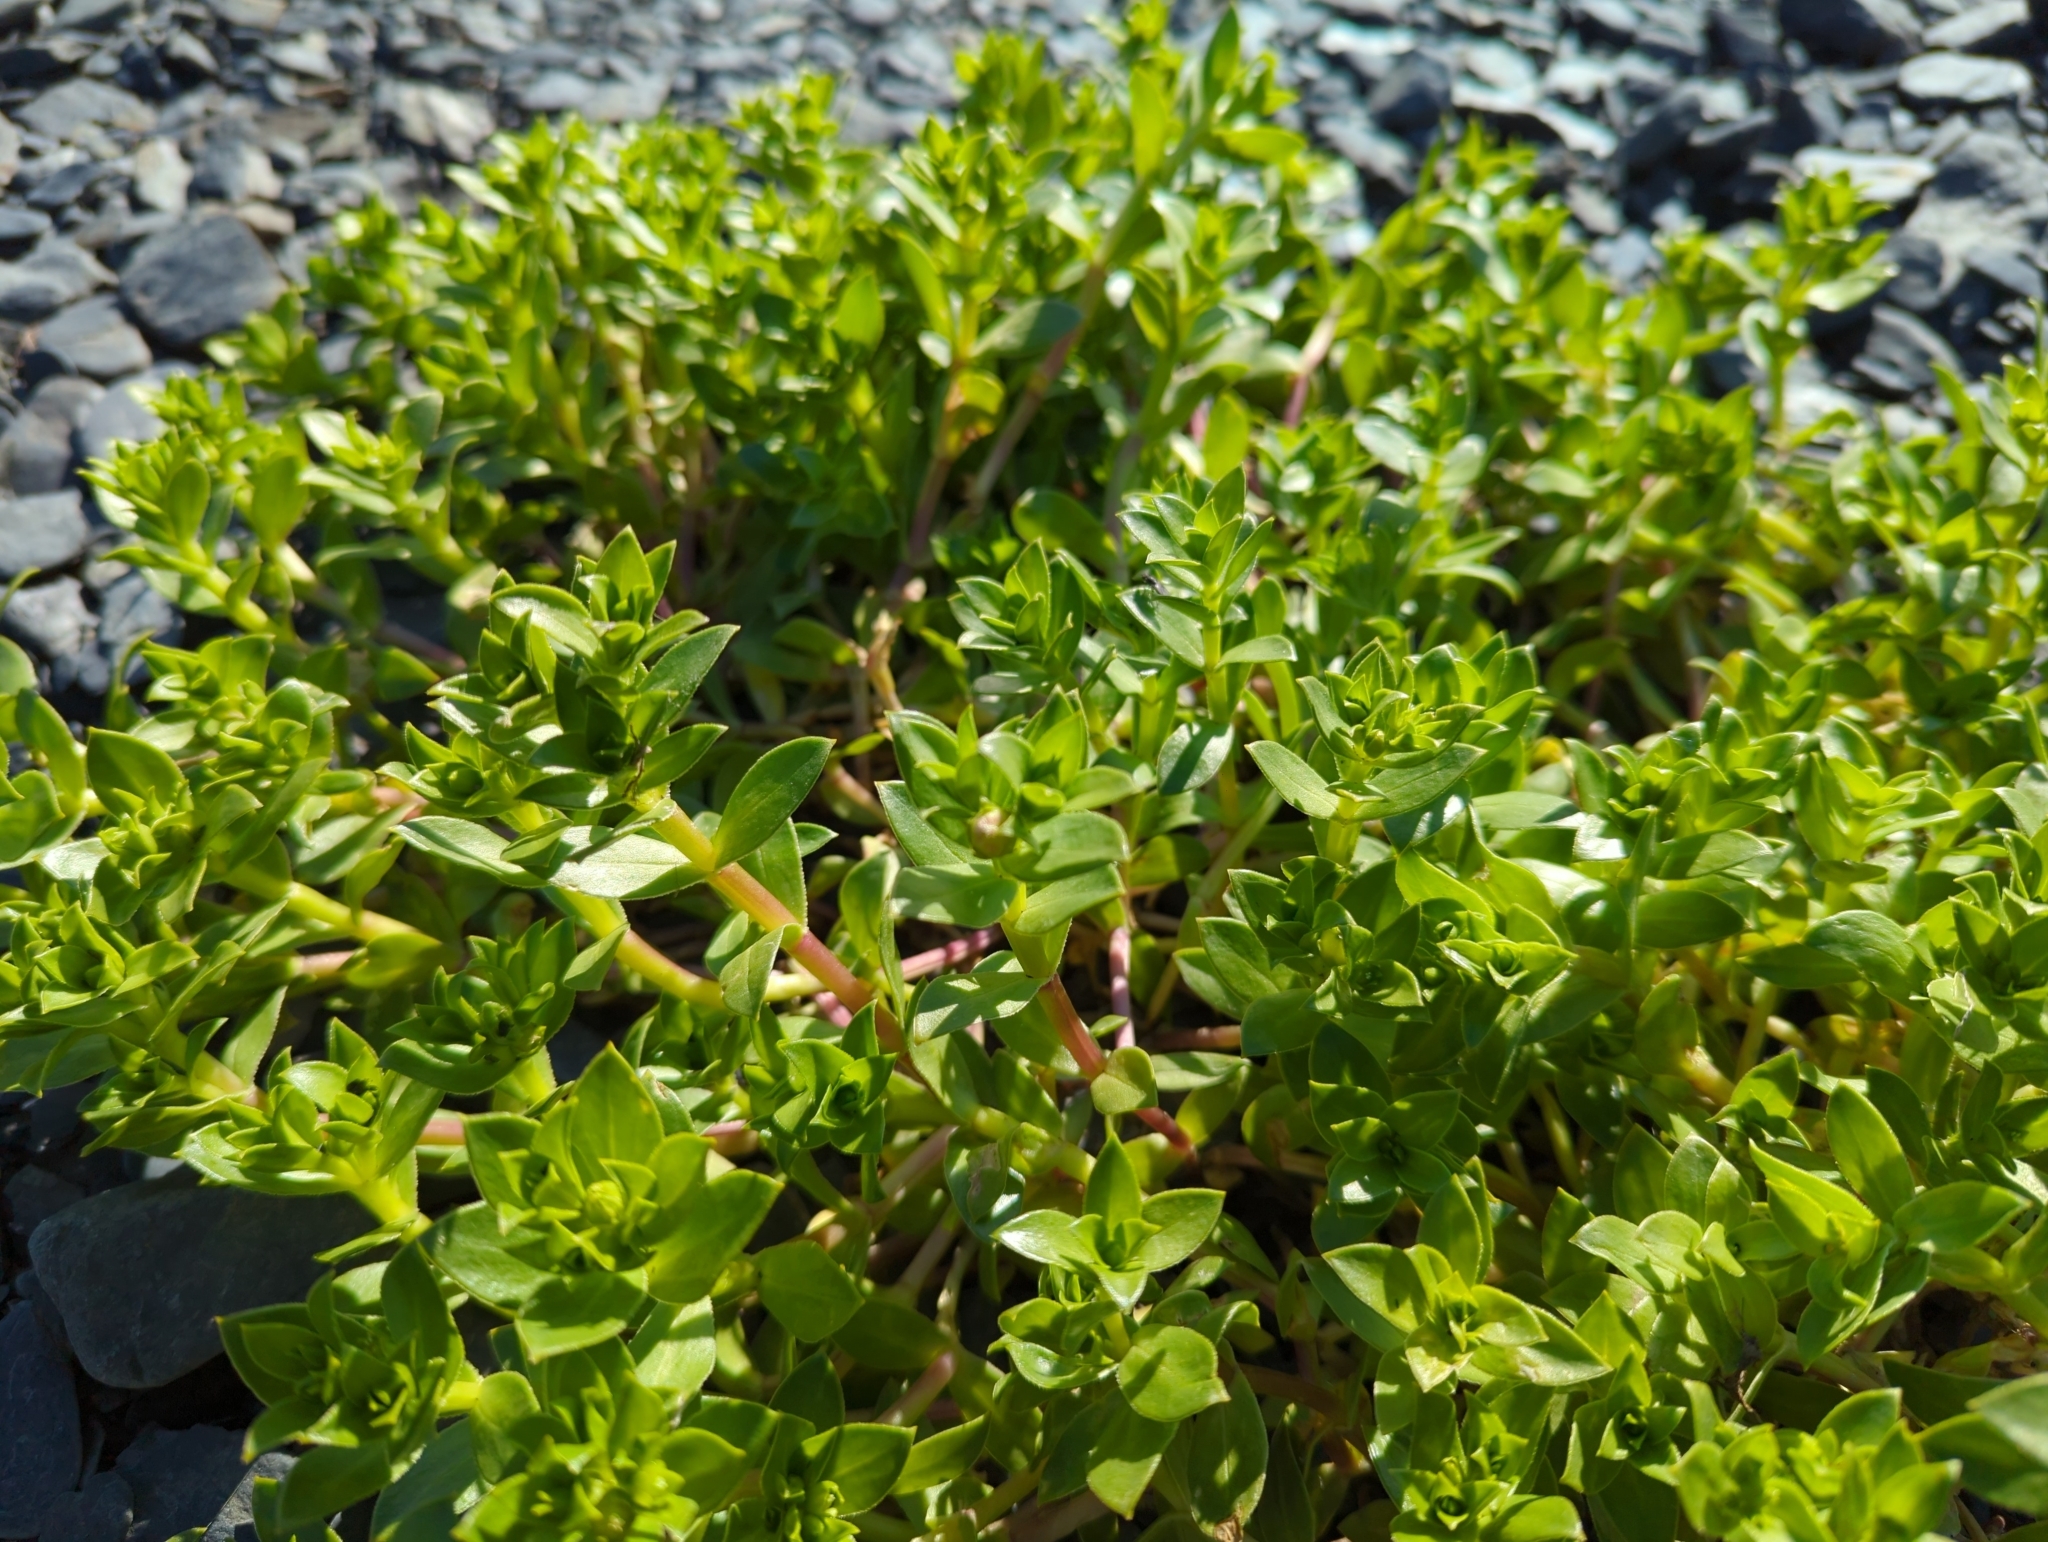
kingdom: Plantae
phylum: Tracheophyta
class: Magnoliopsida
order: Caryophyllales
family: Caryophyllaceae
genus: Honckenya
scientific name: Honckenya peploides
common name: Sea sandwort
